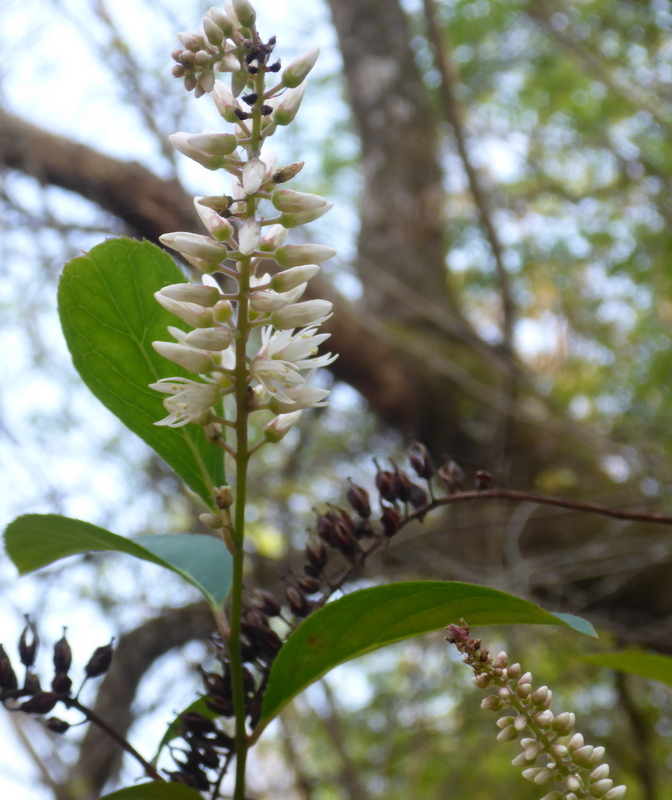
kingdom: Plantae
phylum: Tracheophyta
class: Magnoliopsida
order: Saxifragales
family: Iteaceae
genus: Itea
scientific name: Itea virginica
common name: Sweetspire
